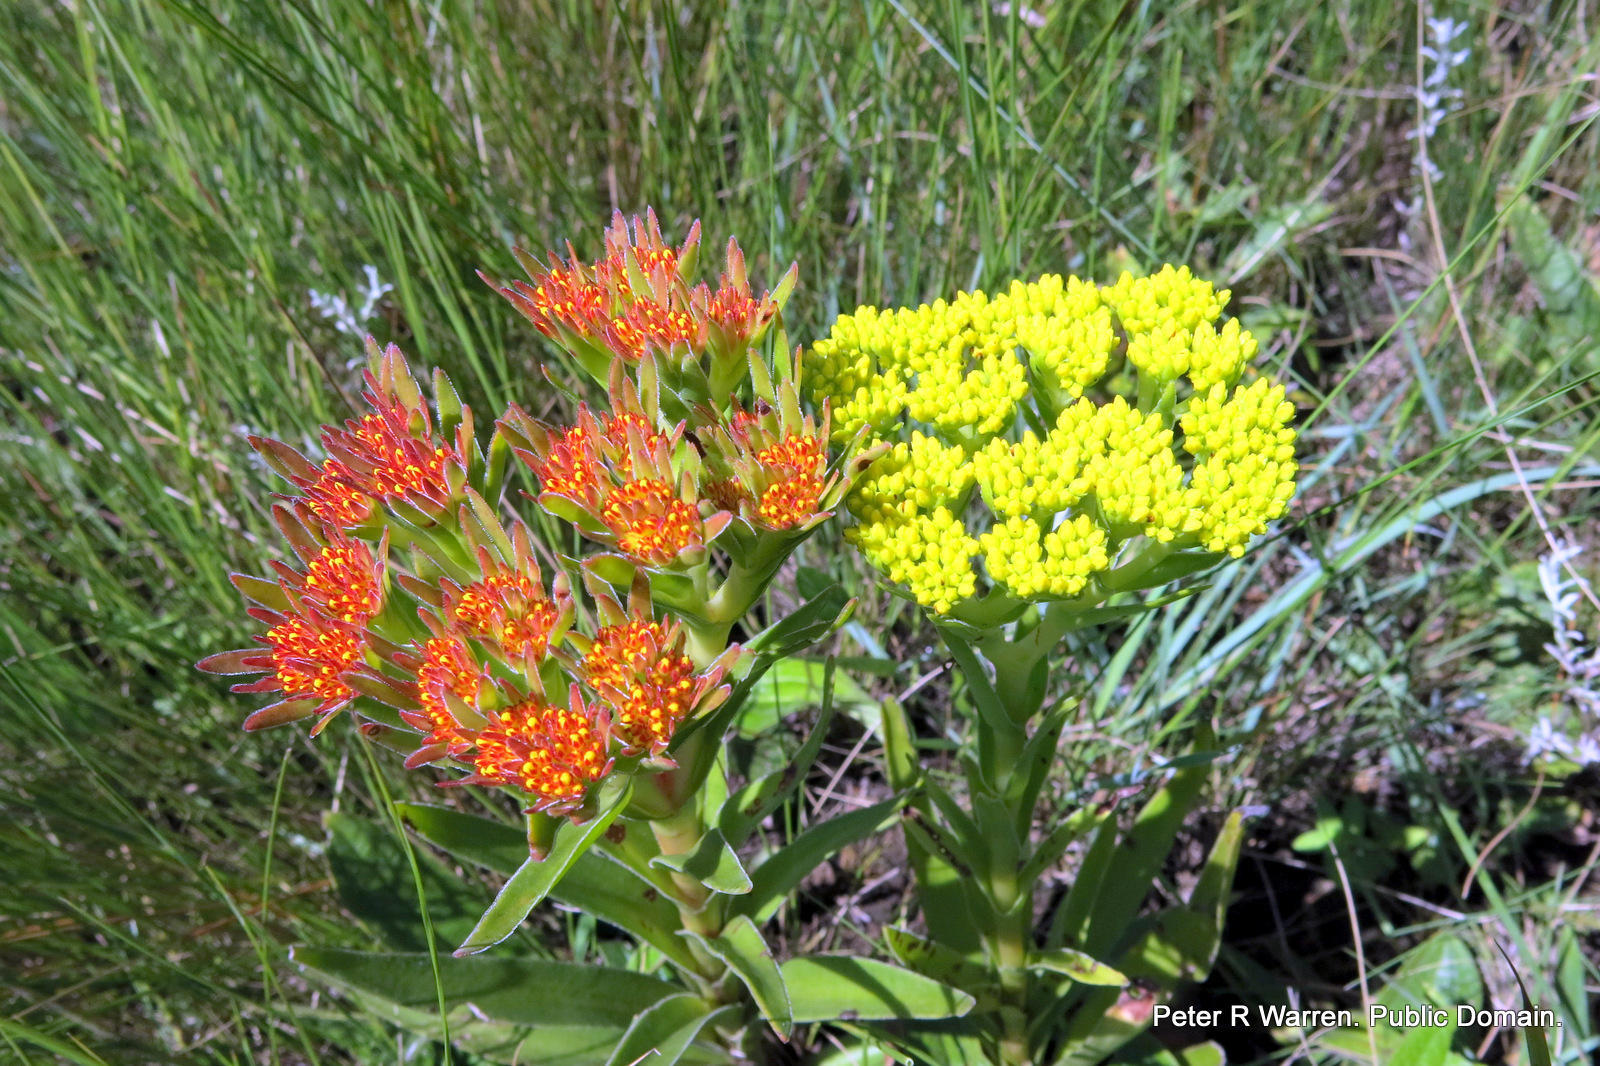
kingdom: Plantae
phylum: Tracheophyta
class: Magnoliopsida
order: Saxifragales
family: Crassulaceae
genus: Crassula
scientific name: Crassula alba
